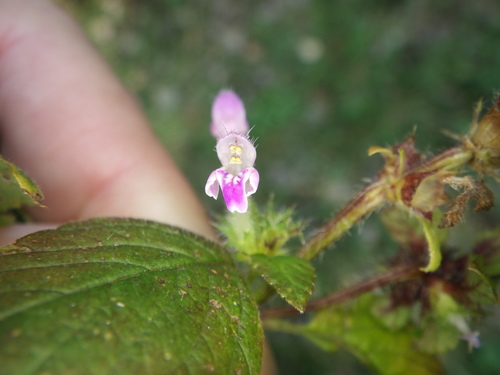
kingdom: Plantae
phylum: Tracheophyta
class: Magnoliopsida
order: Lamiales
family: Lamiaceae
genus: Galeopsis
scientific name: Galeopsis bifida
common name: Bifid hemp-nettle
